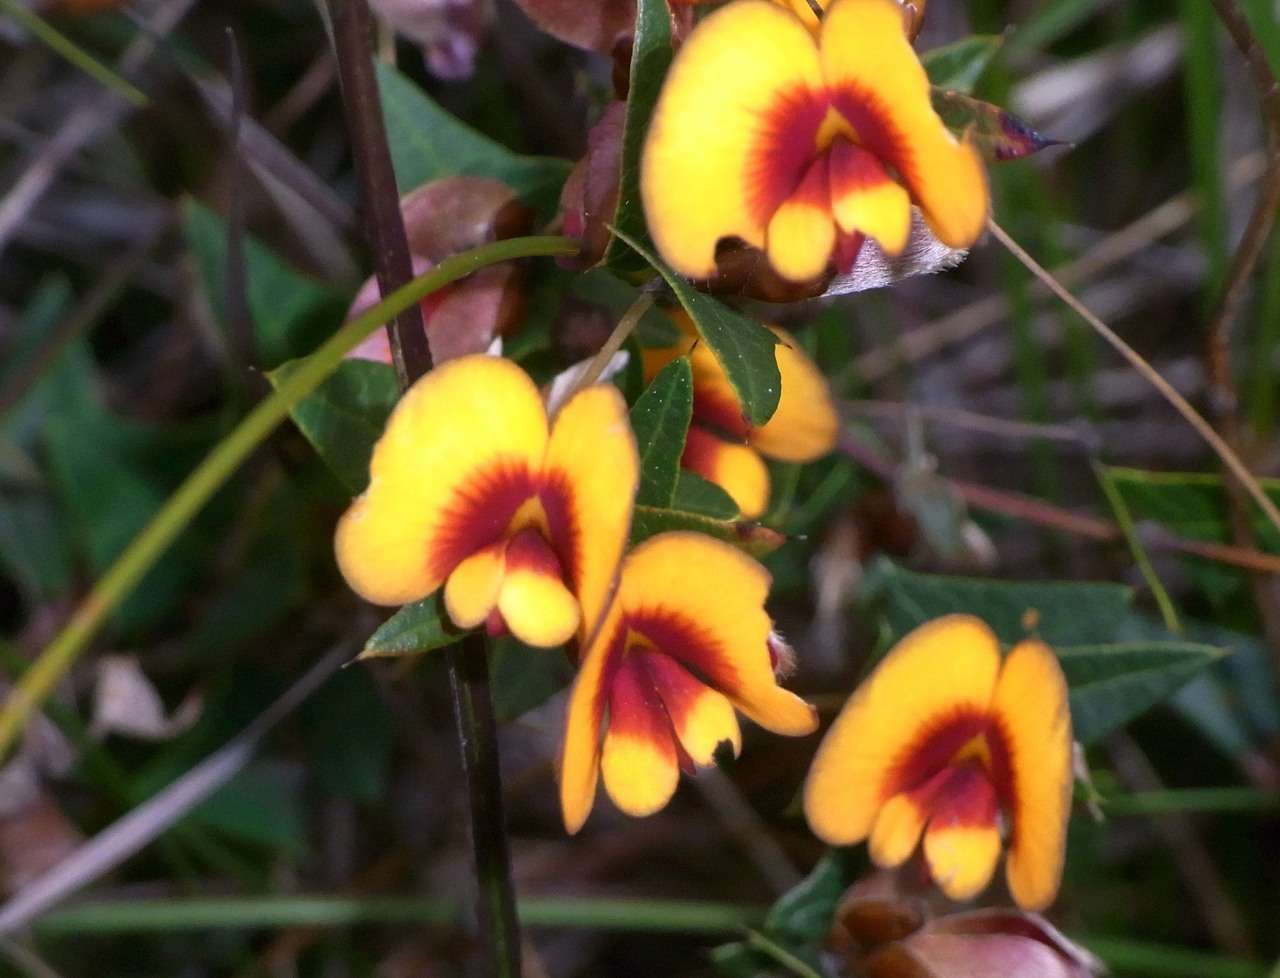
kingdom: Plantae
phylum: Tracheophyta
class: Magnoliopsida
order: Fabales
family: Fabaceae
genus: Platylobium
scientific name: Platylobium obtusangulum
